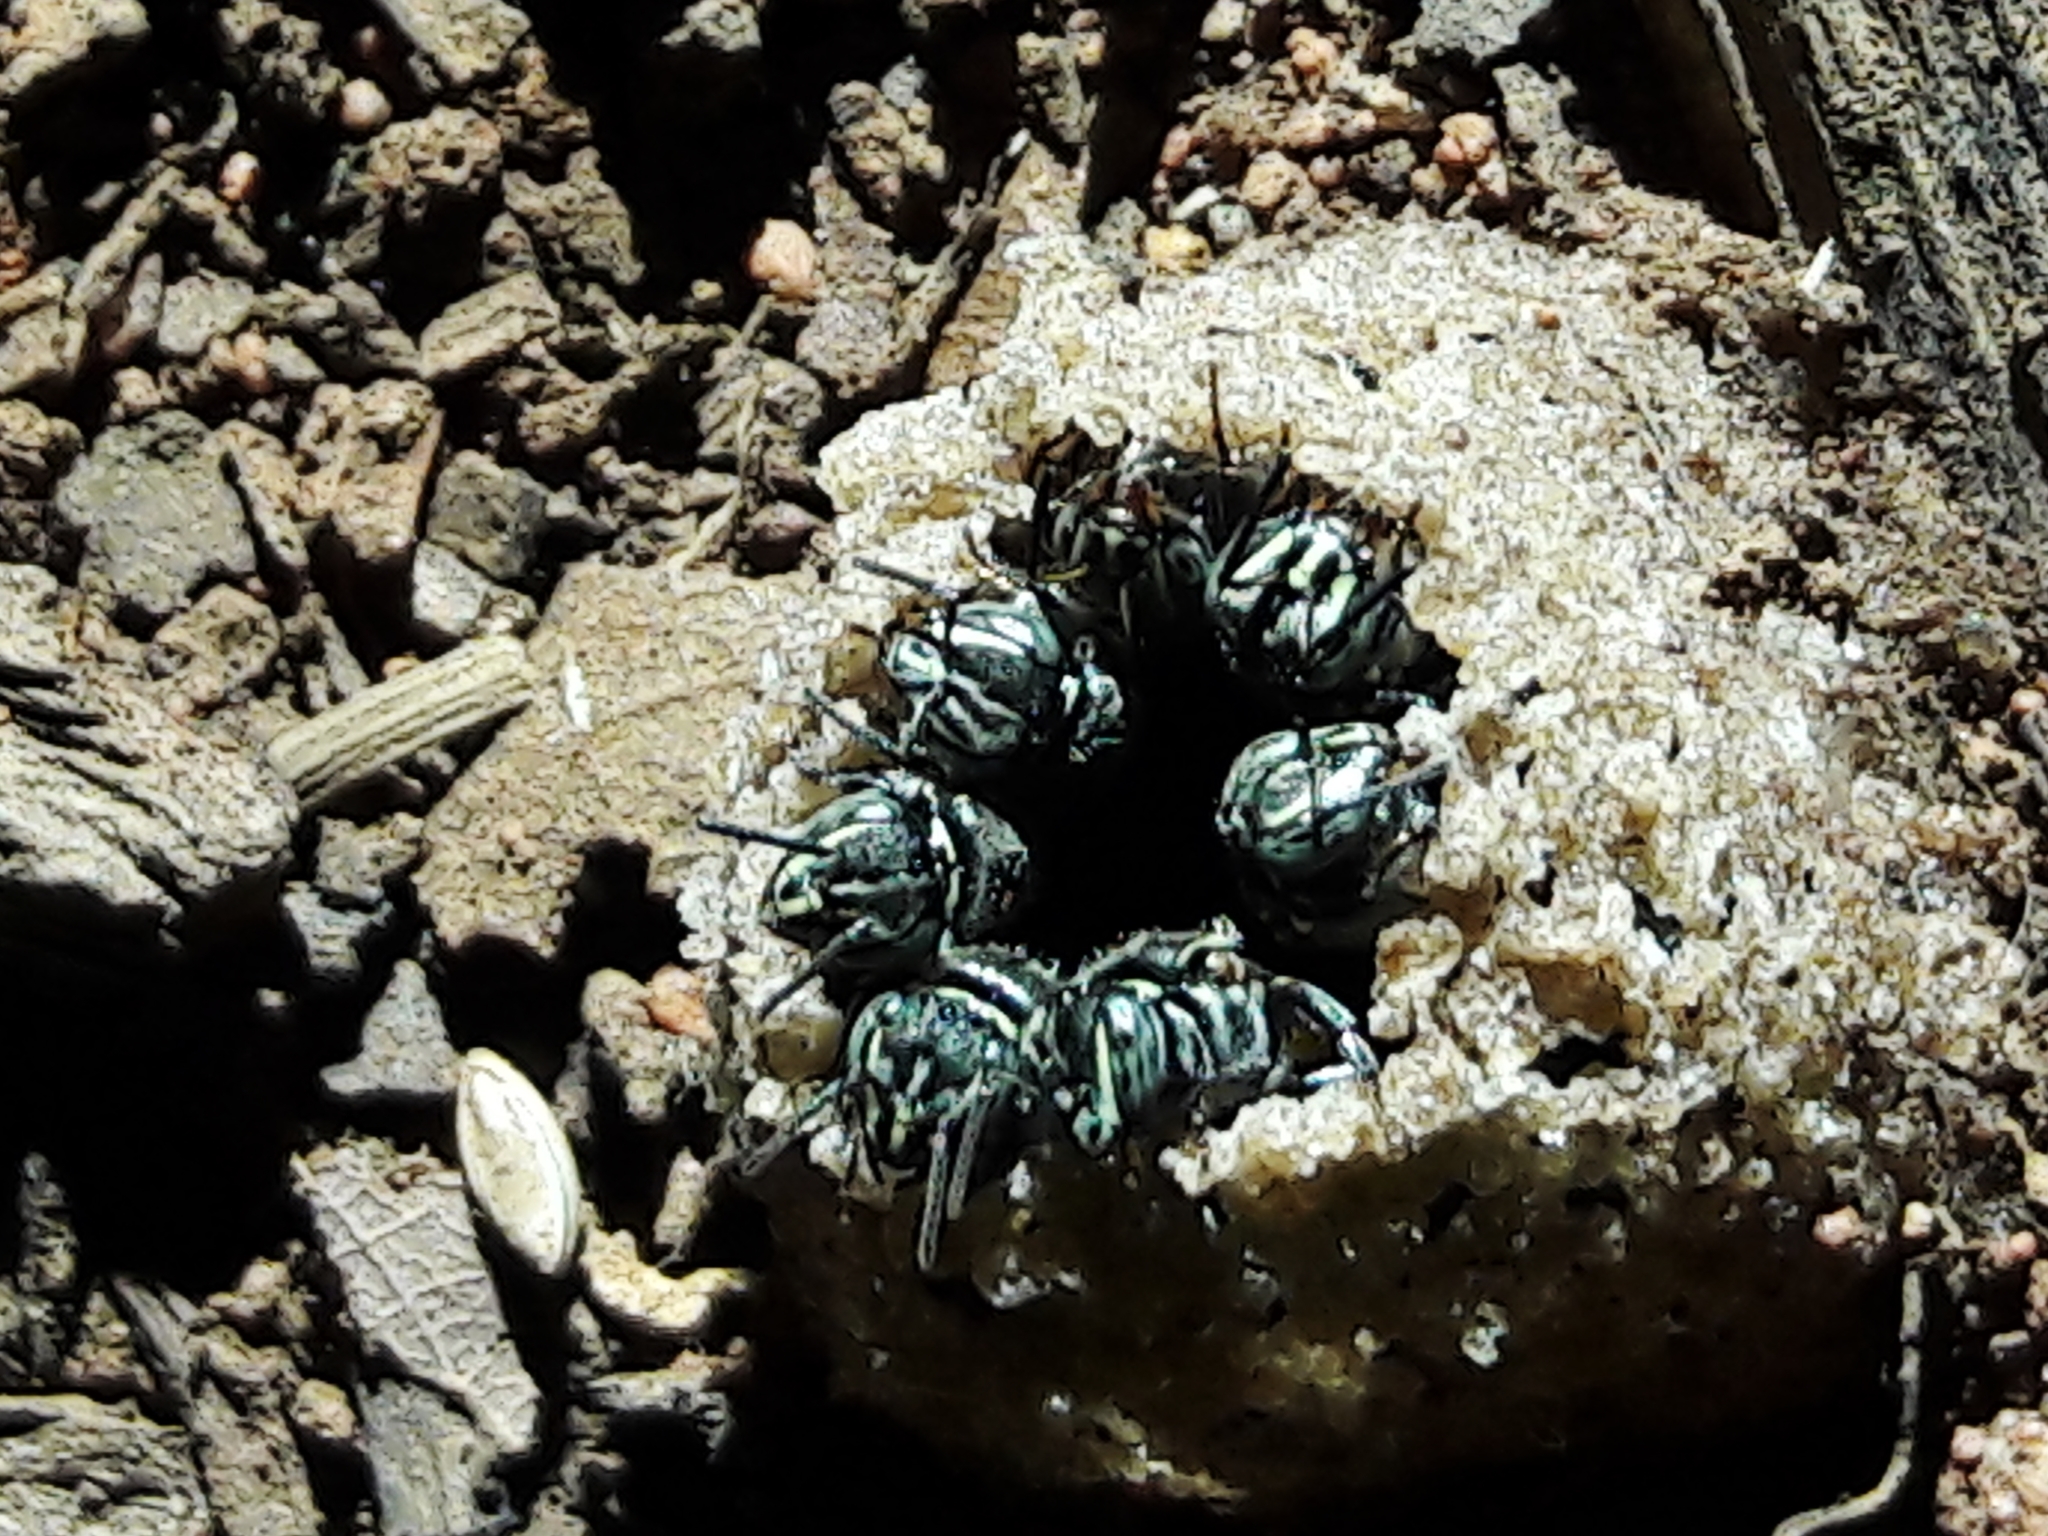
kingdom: Animalia
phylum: Arthropoda
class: Insecta
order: Hymenoptera
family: Apidae
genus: Paratrigona
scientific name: Paratrigona lineata
